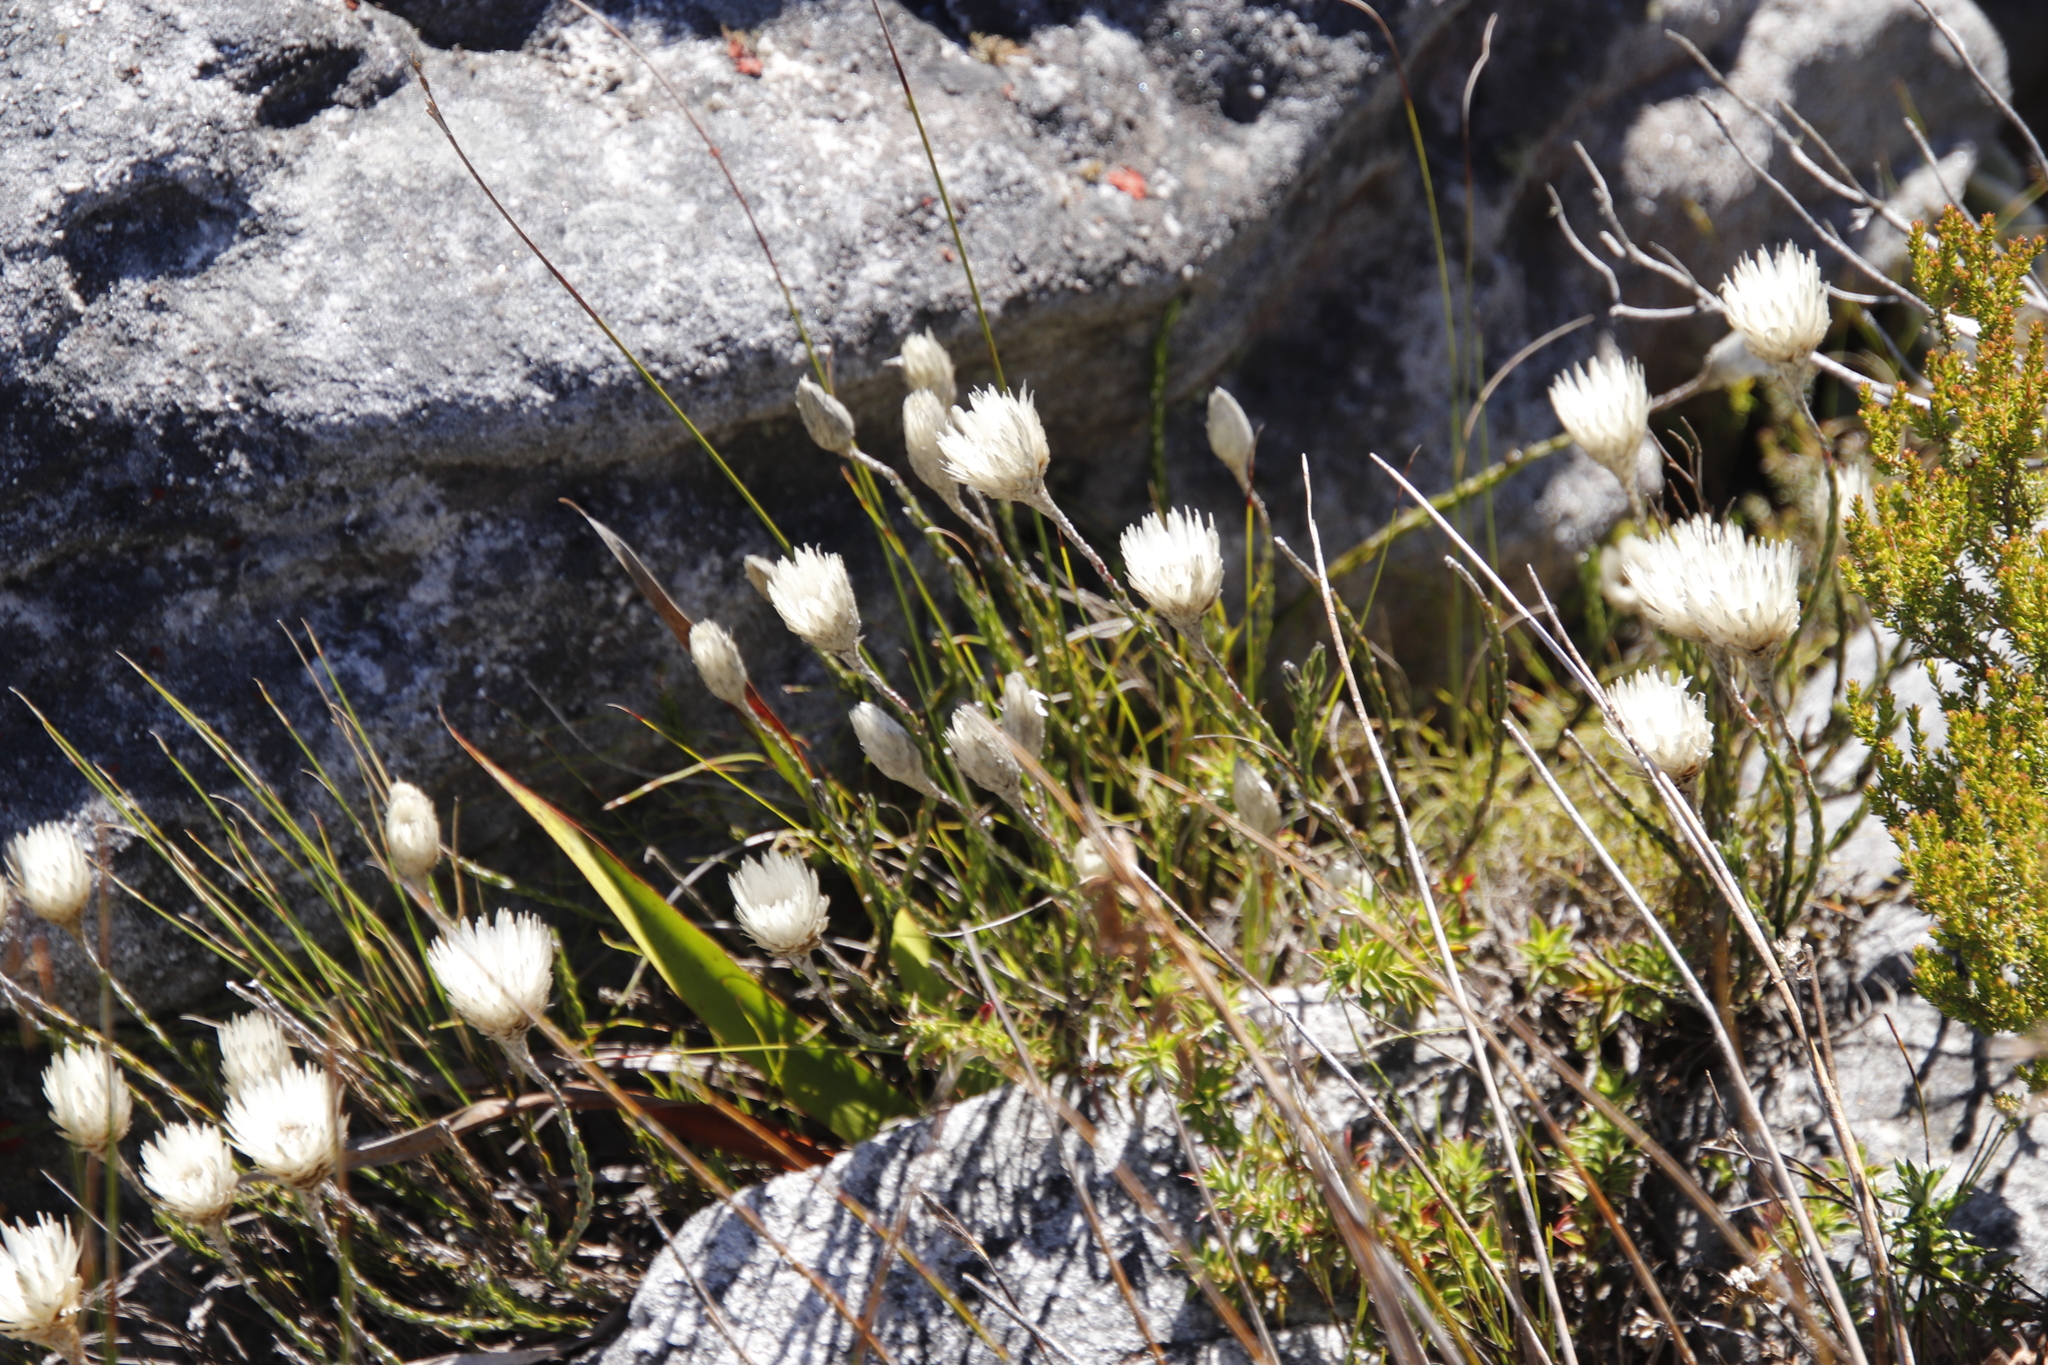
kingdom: Plantae
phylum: Tracheophyta
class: Magnoliopsida
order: Asterales
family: Asteraceae
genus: Edmondia
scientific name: Edmondia pinifolia
